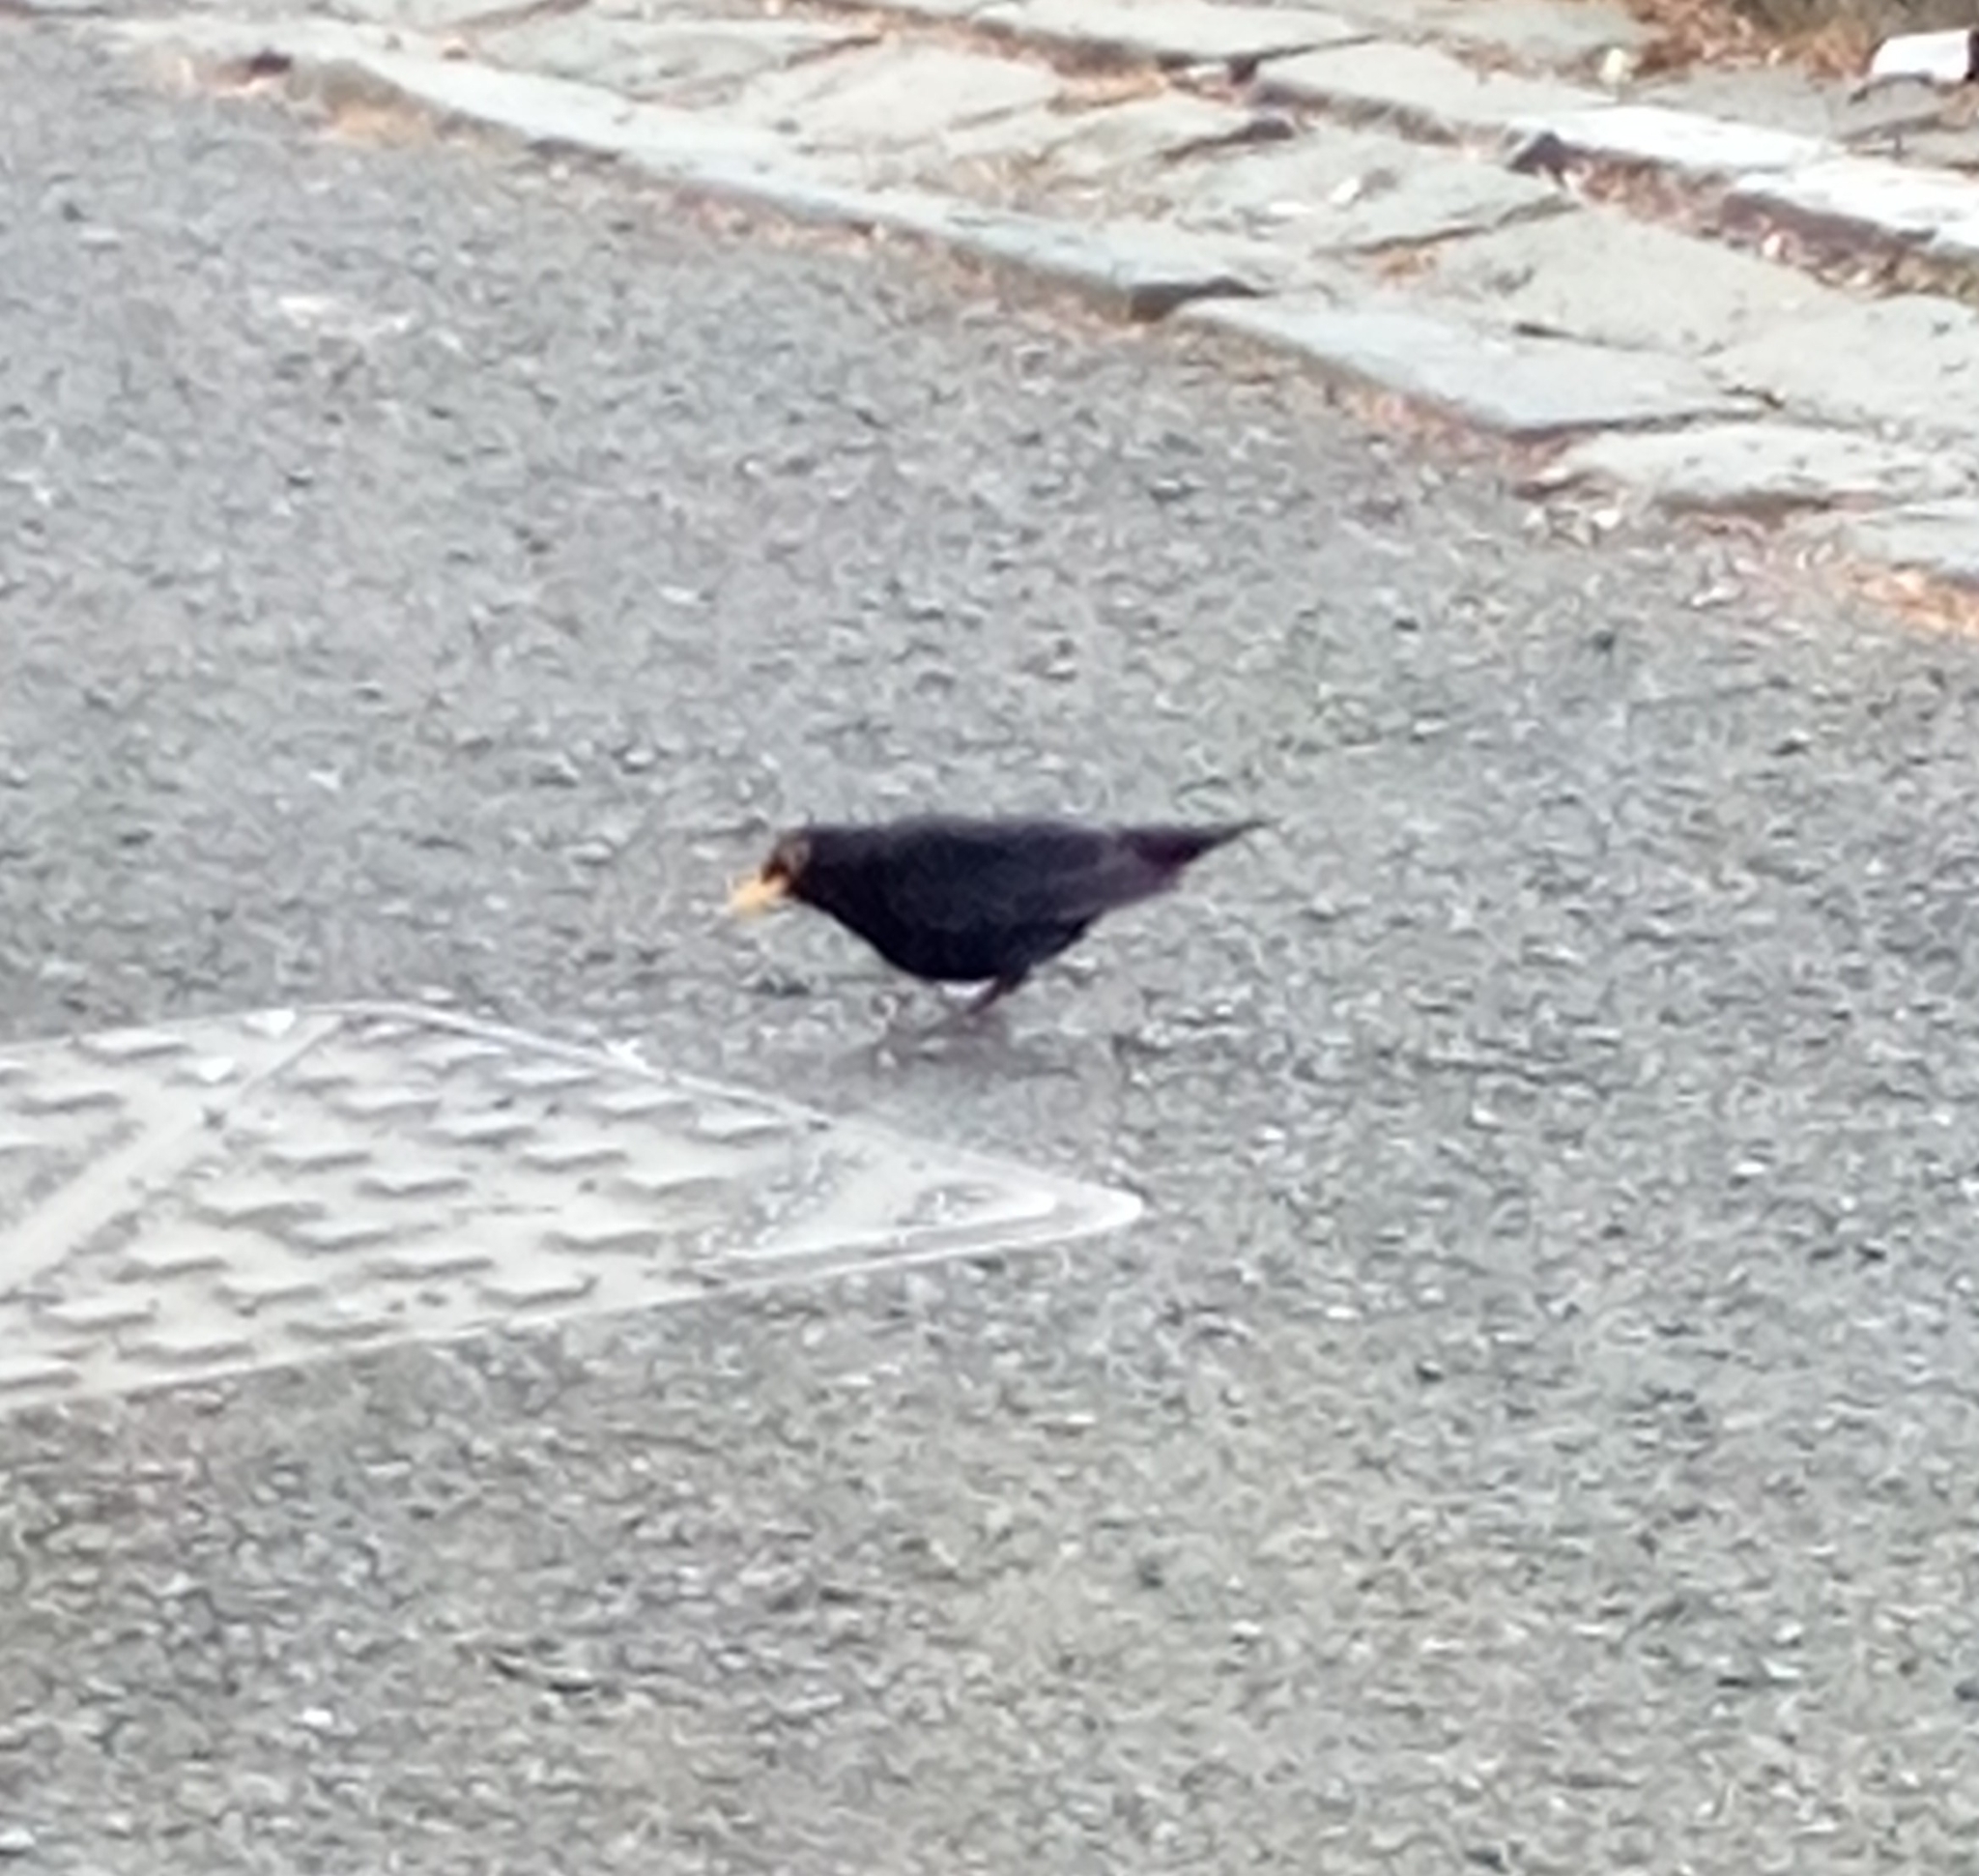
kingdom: Animalia
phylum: Chordata
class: Aves
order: Passeriformes
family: Turdidae
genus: Turdus
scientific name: Turdus merula
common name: Common blackbird
